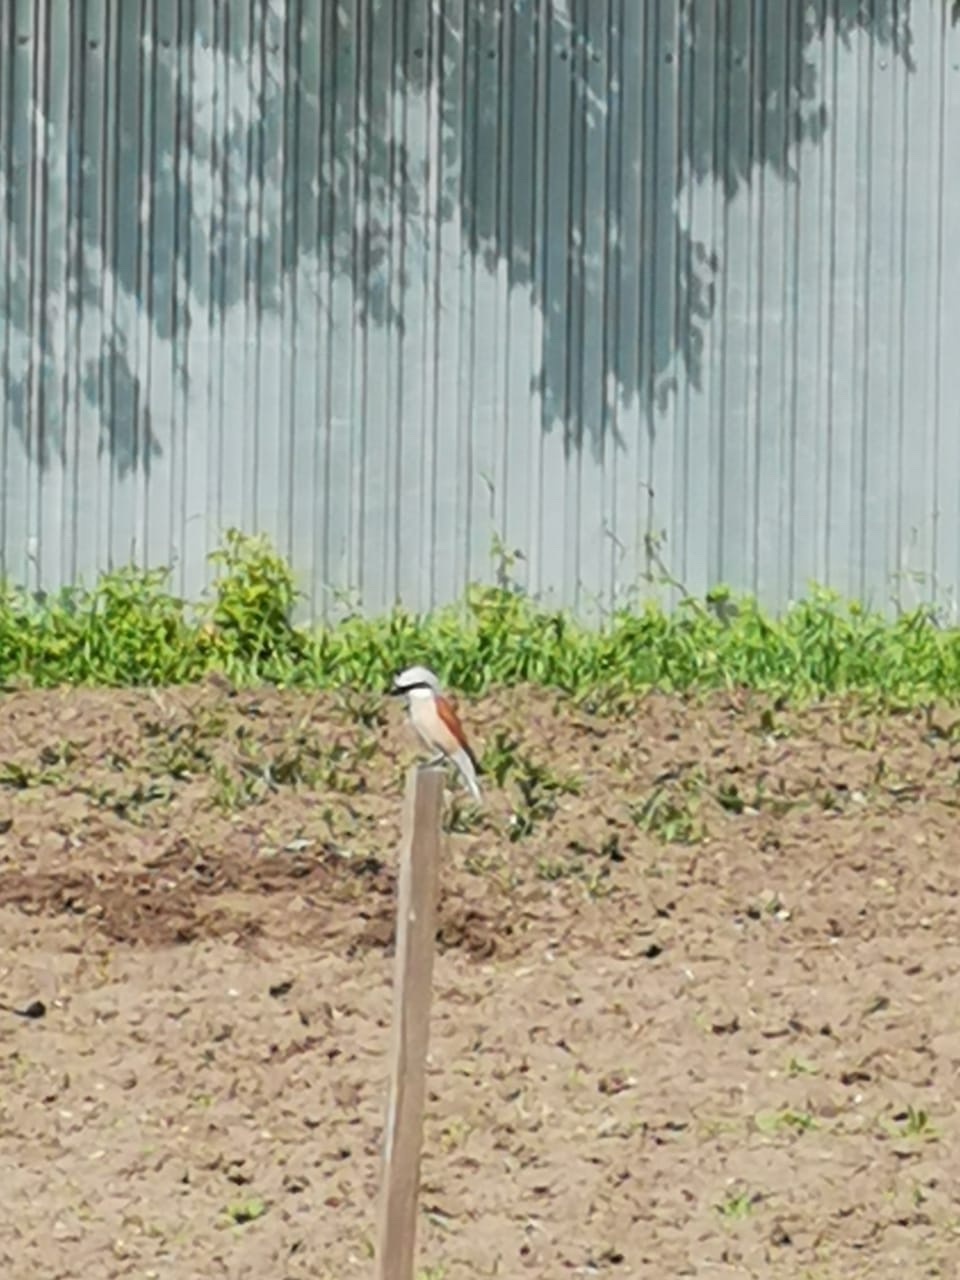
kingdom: Animalia
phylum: Chordata
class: Aves
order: Passeriformes
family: Laniidae
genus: Lanius
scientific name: Lanius collurio
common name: Red-backed shrike
